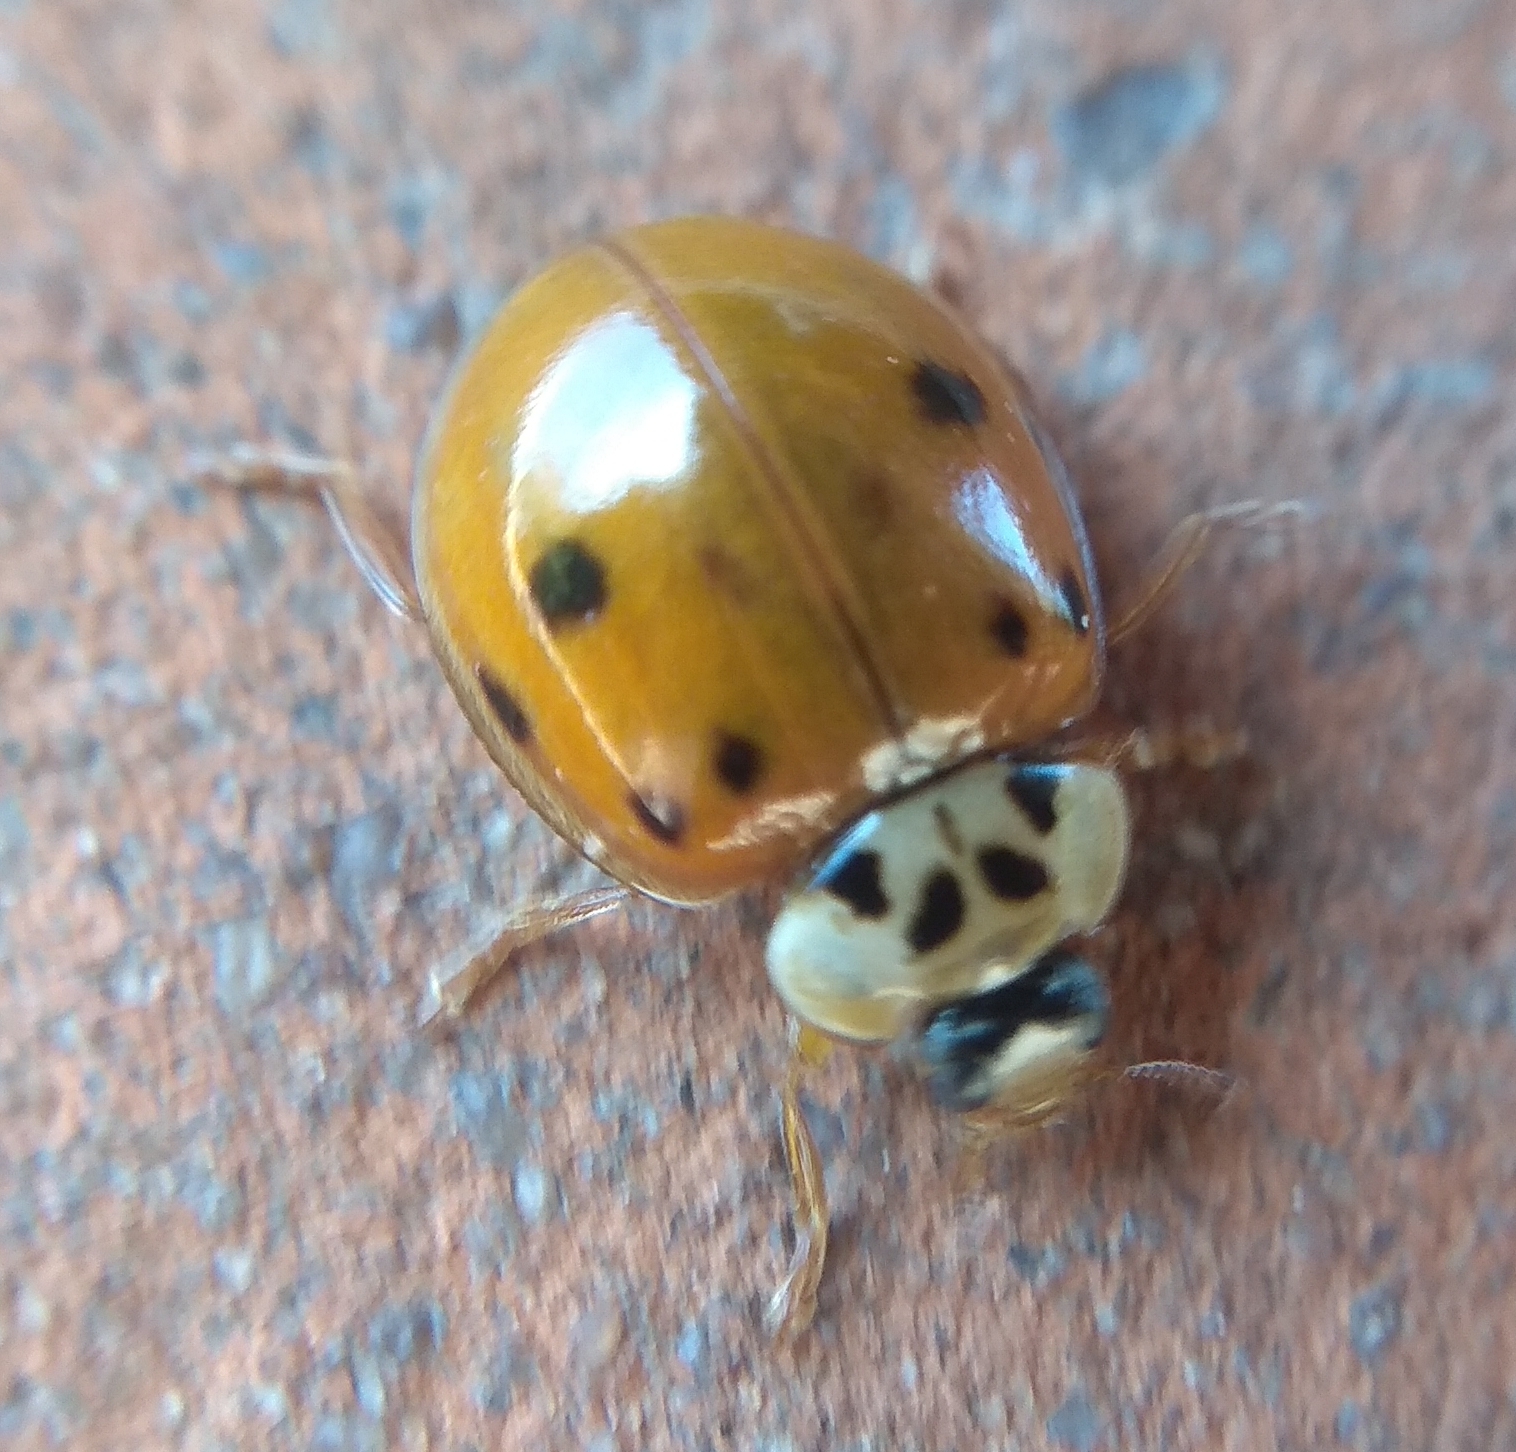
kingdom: Animalia
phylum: Arthropoda
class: Insecta
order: Coleoptera
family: Coccinellidae
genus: Harmonia
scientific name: Harmonia axyridis
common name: Harlequin ladybird
